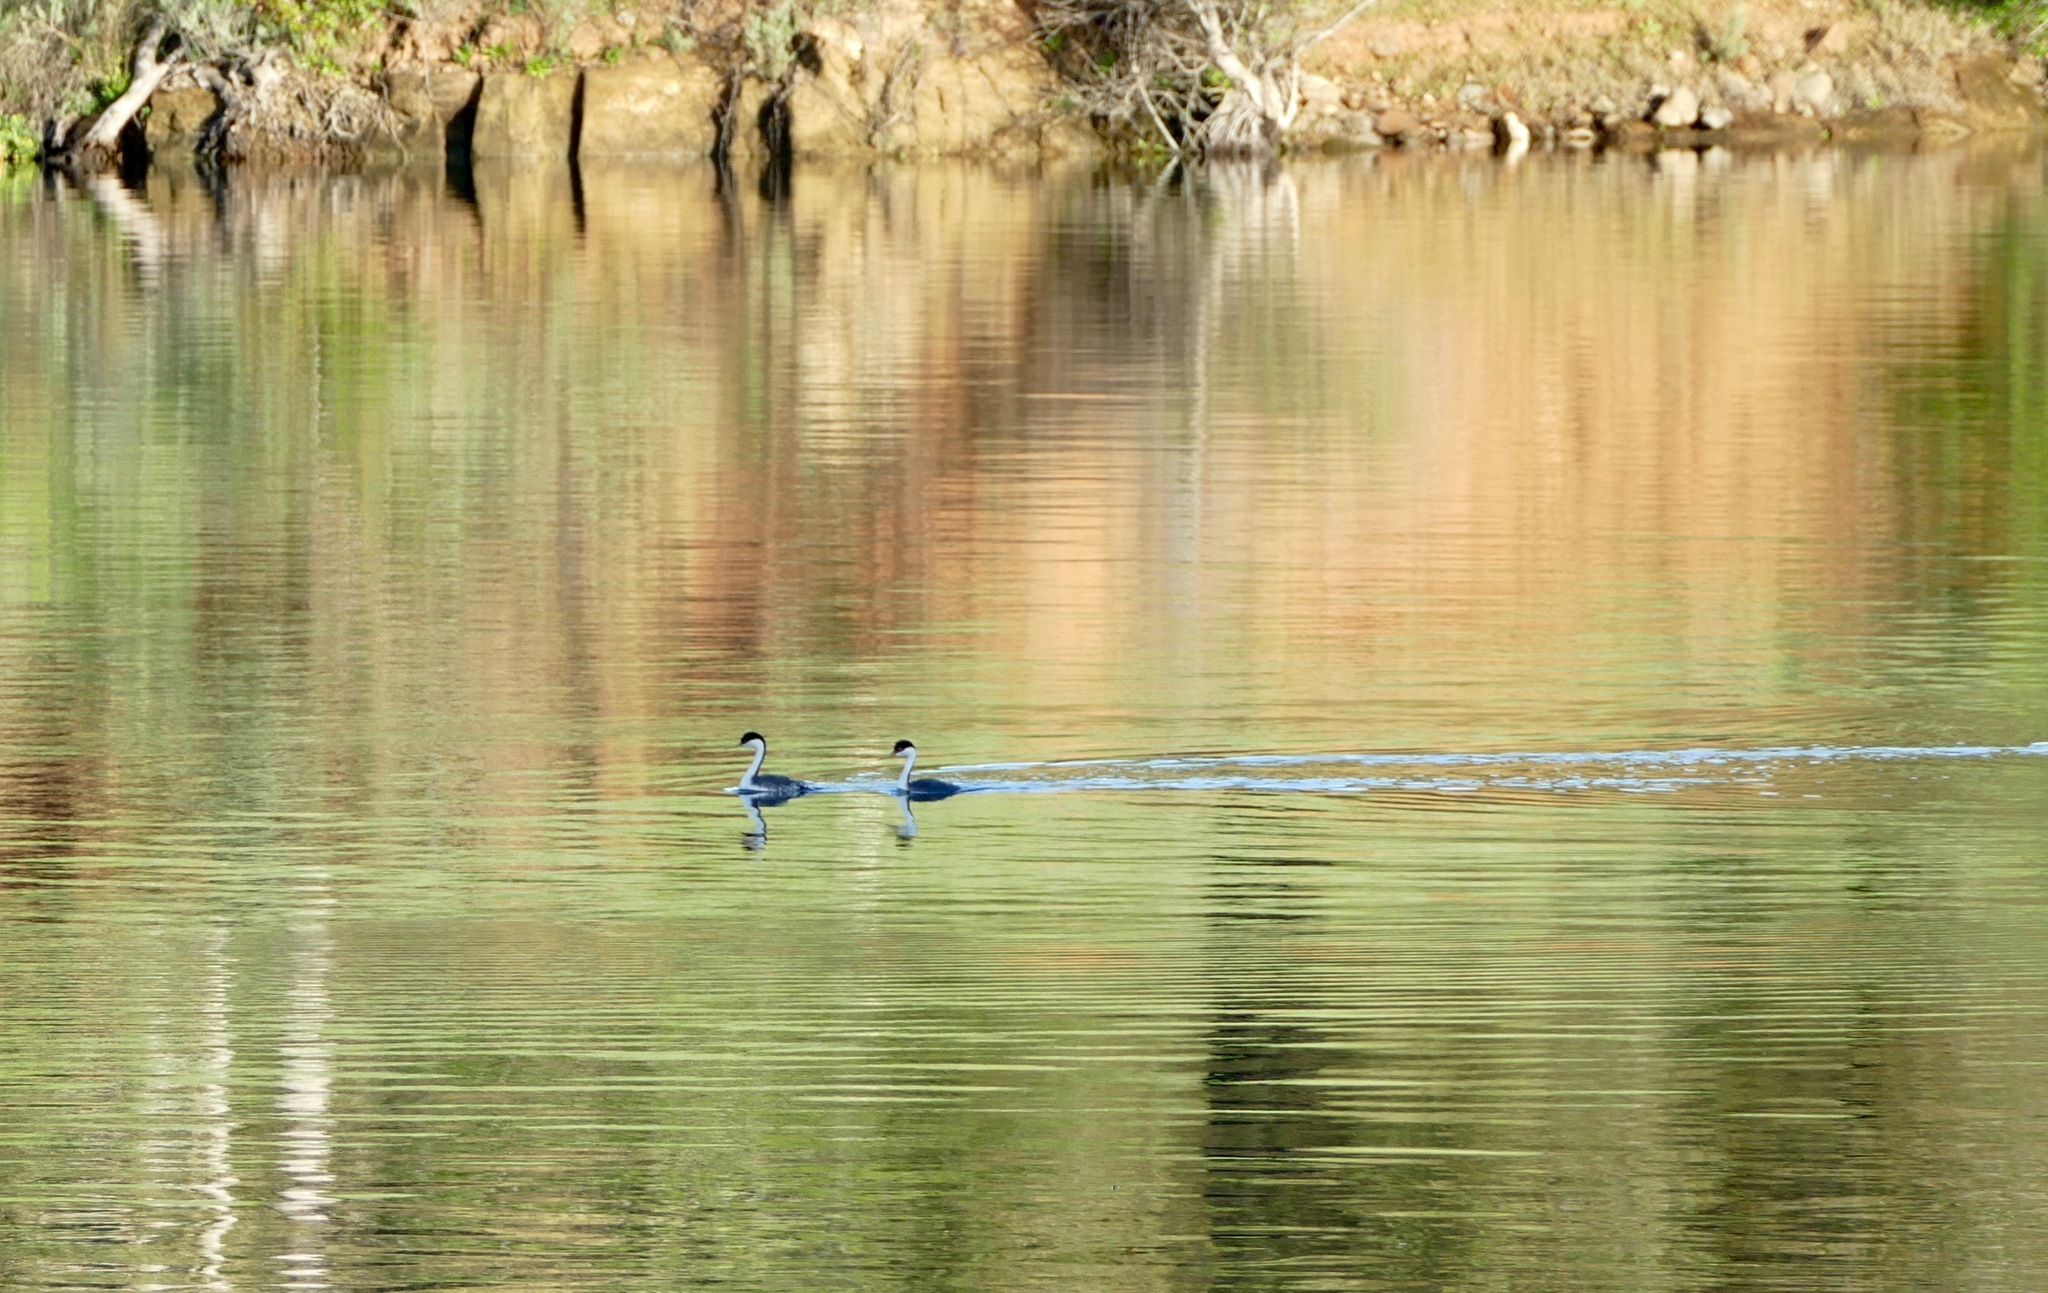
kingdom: Animalia
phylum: Chordata
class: Aves
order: Podicipediformes
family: Podicipedidae
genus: Aechmophorus
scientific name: Aechmophorus occidentalis
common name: Western grebe
